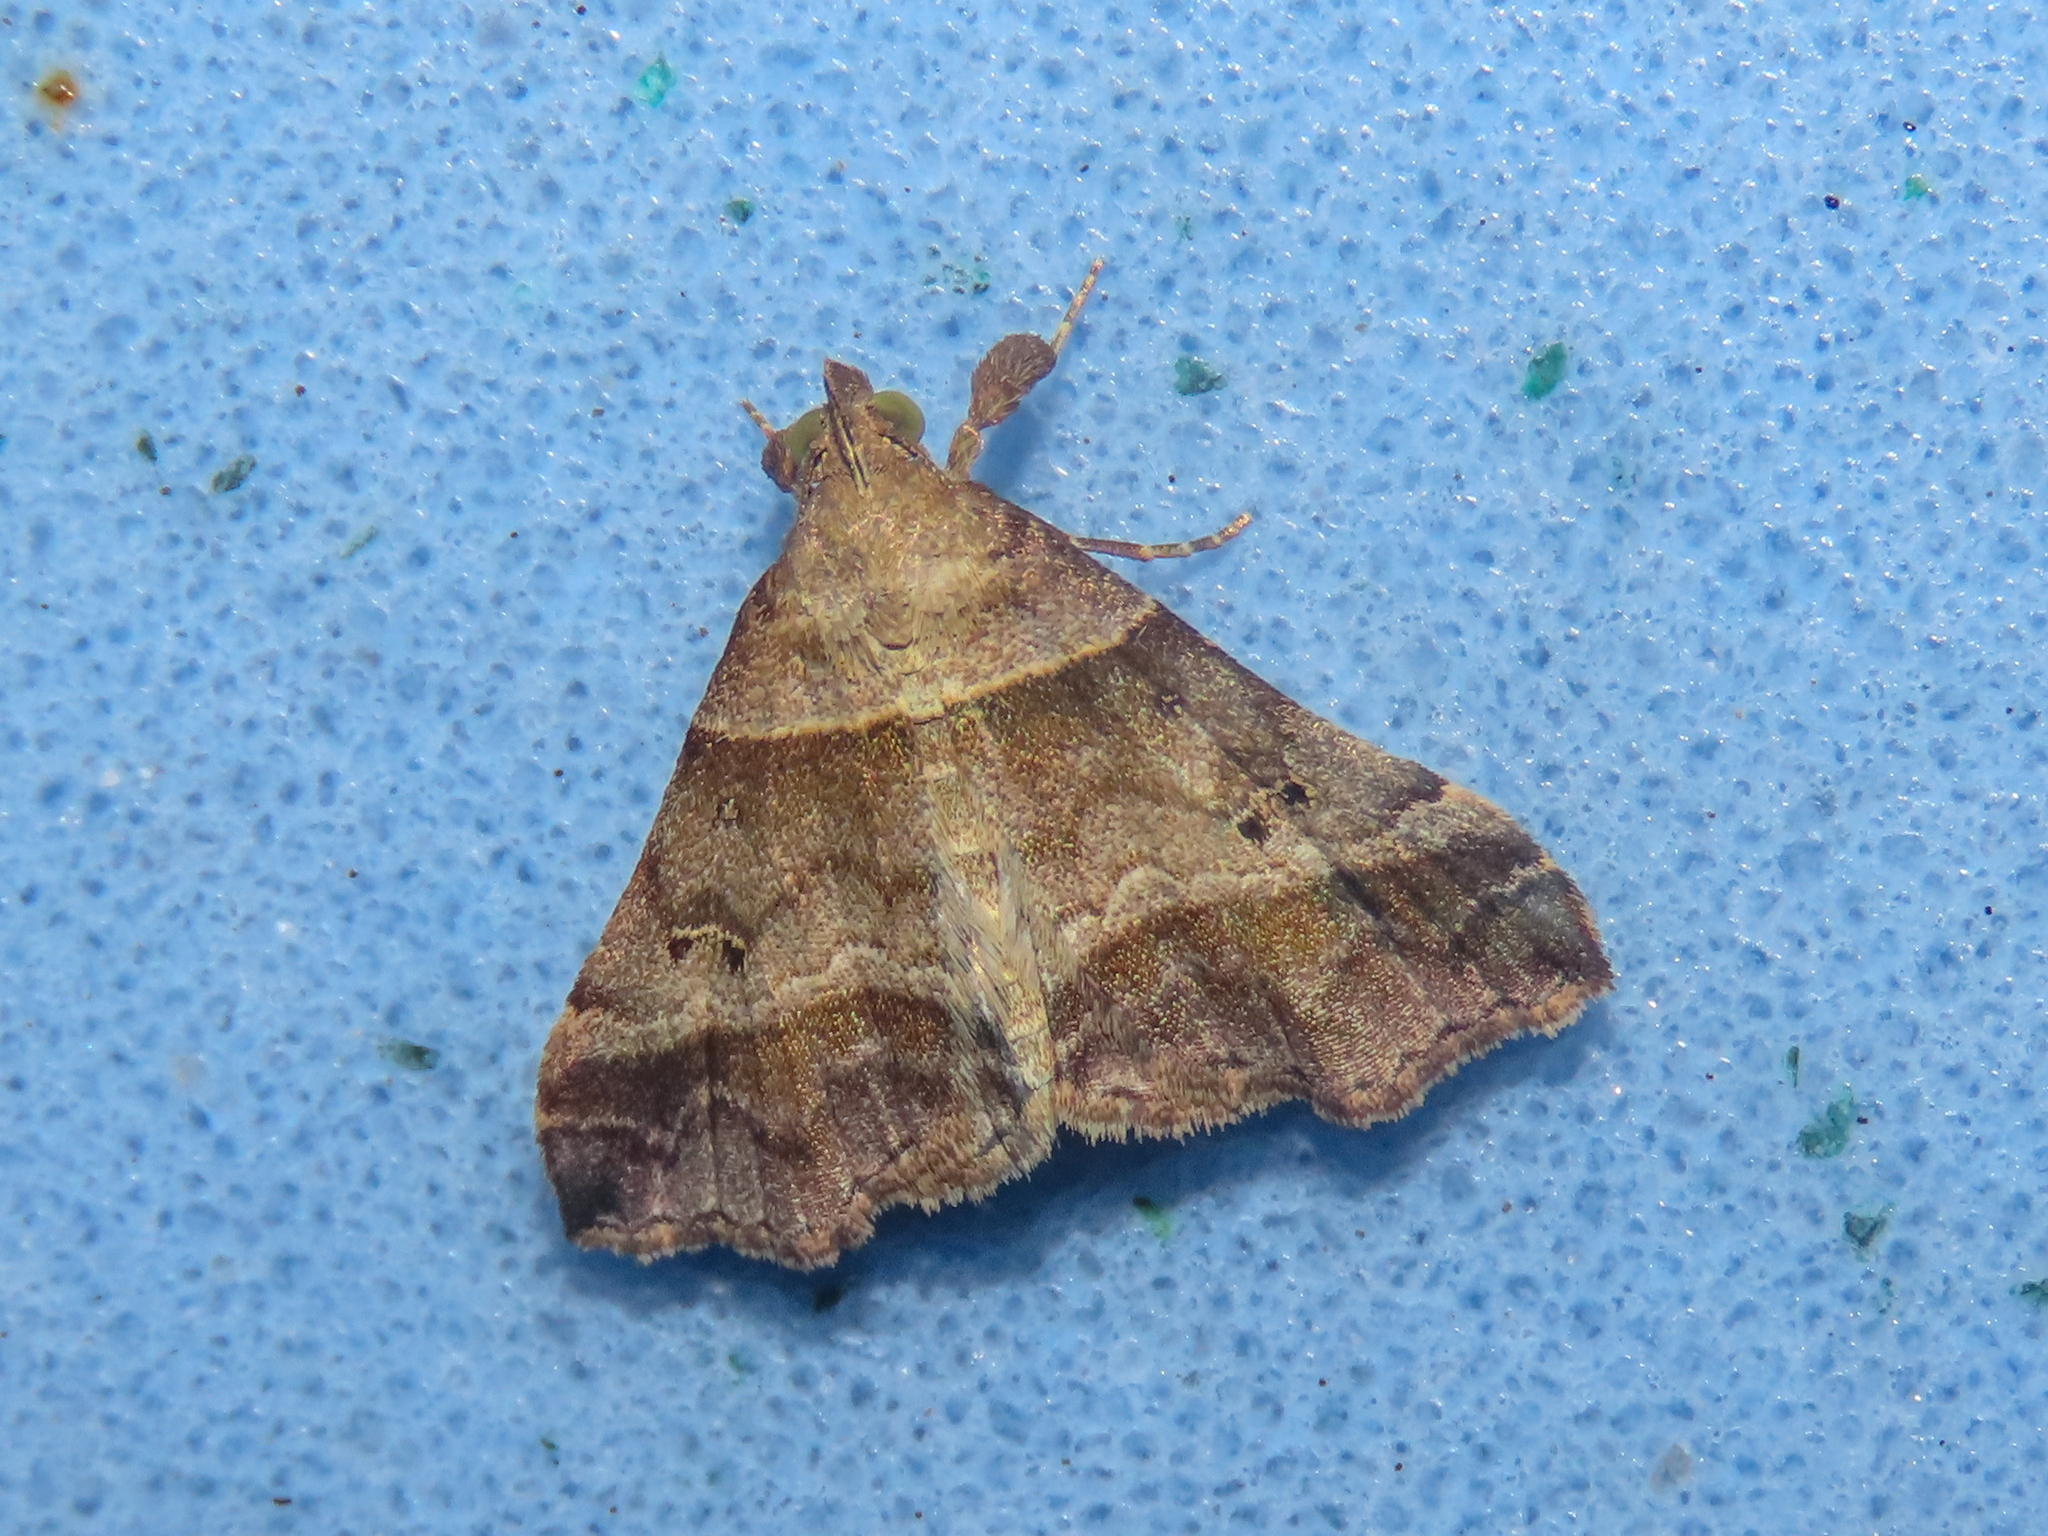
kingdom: Animalia
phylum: Arthropoda
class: Insecta
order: Lepidoptera
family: Erebidae
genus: Phaeolita
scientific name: Phaeolita pyramusalis
